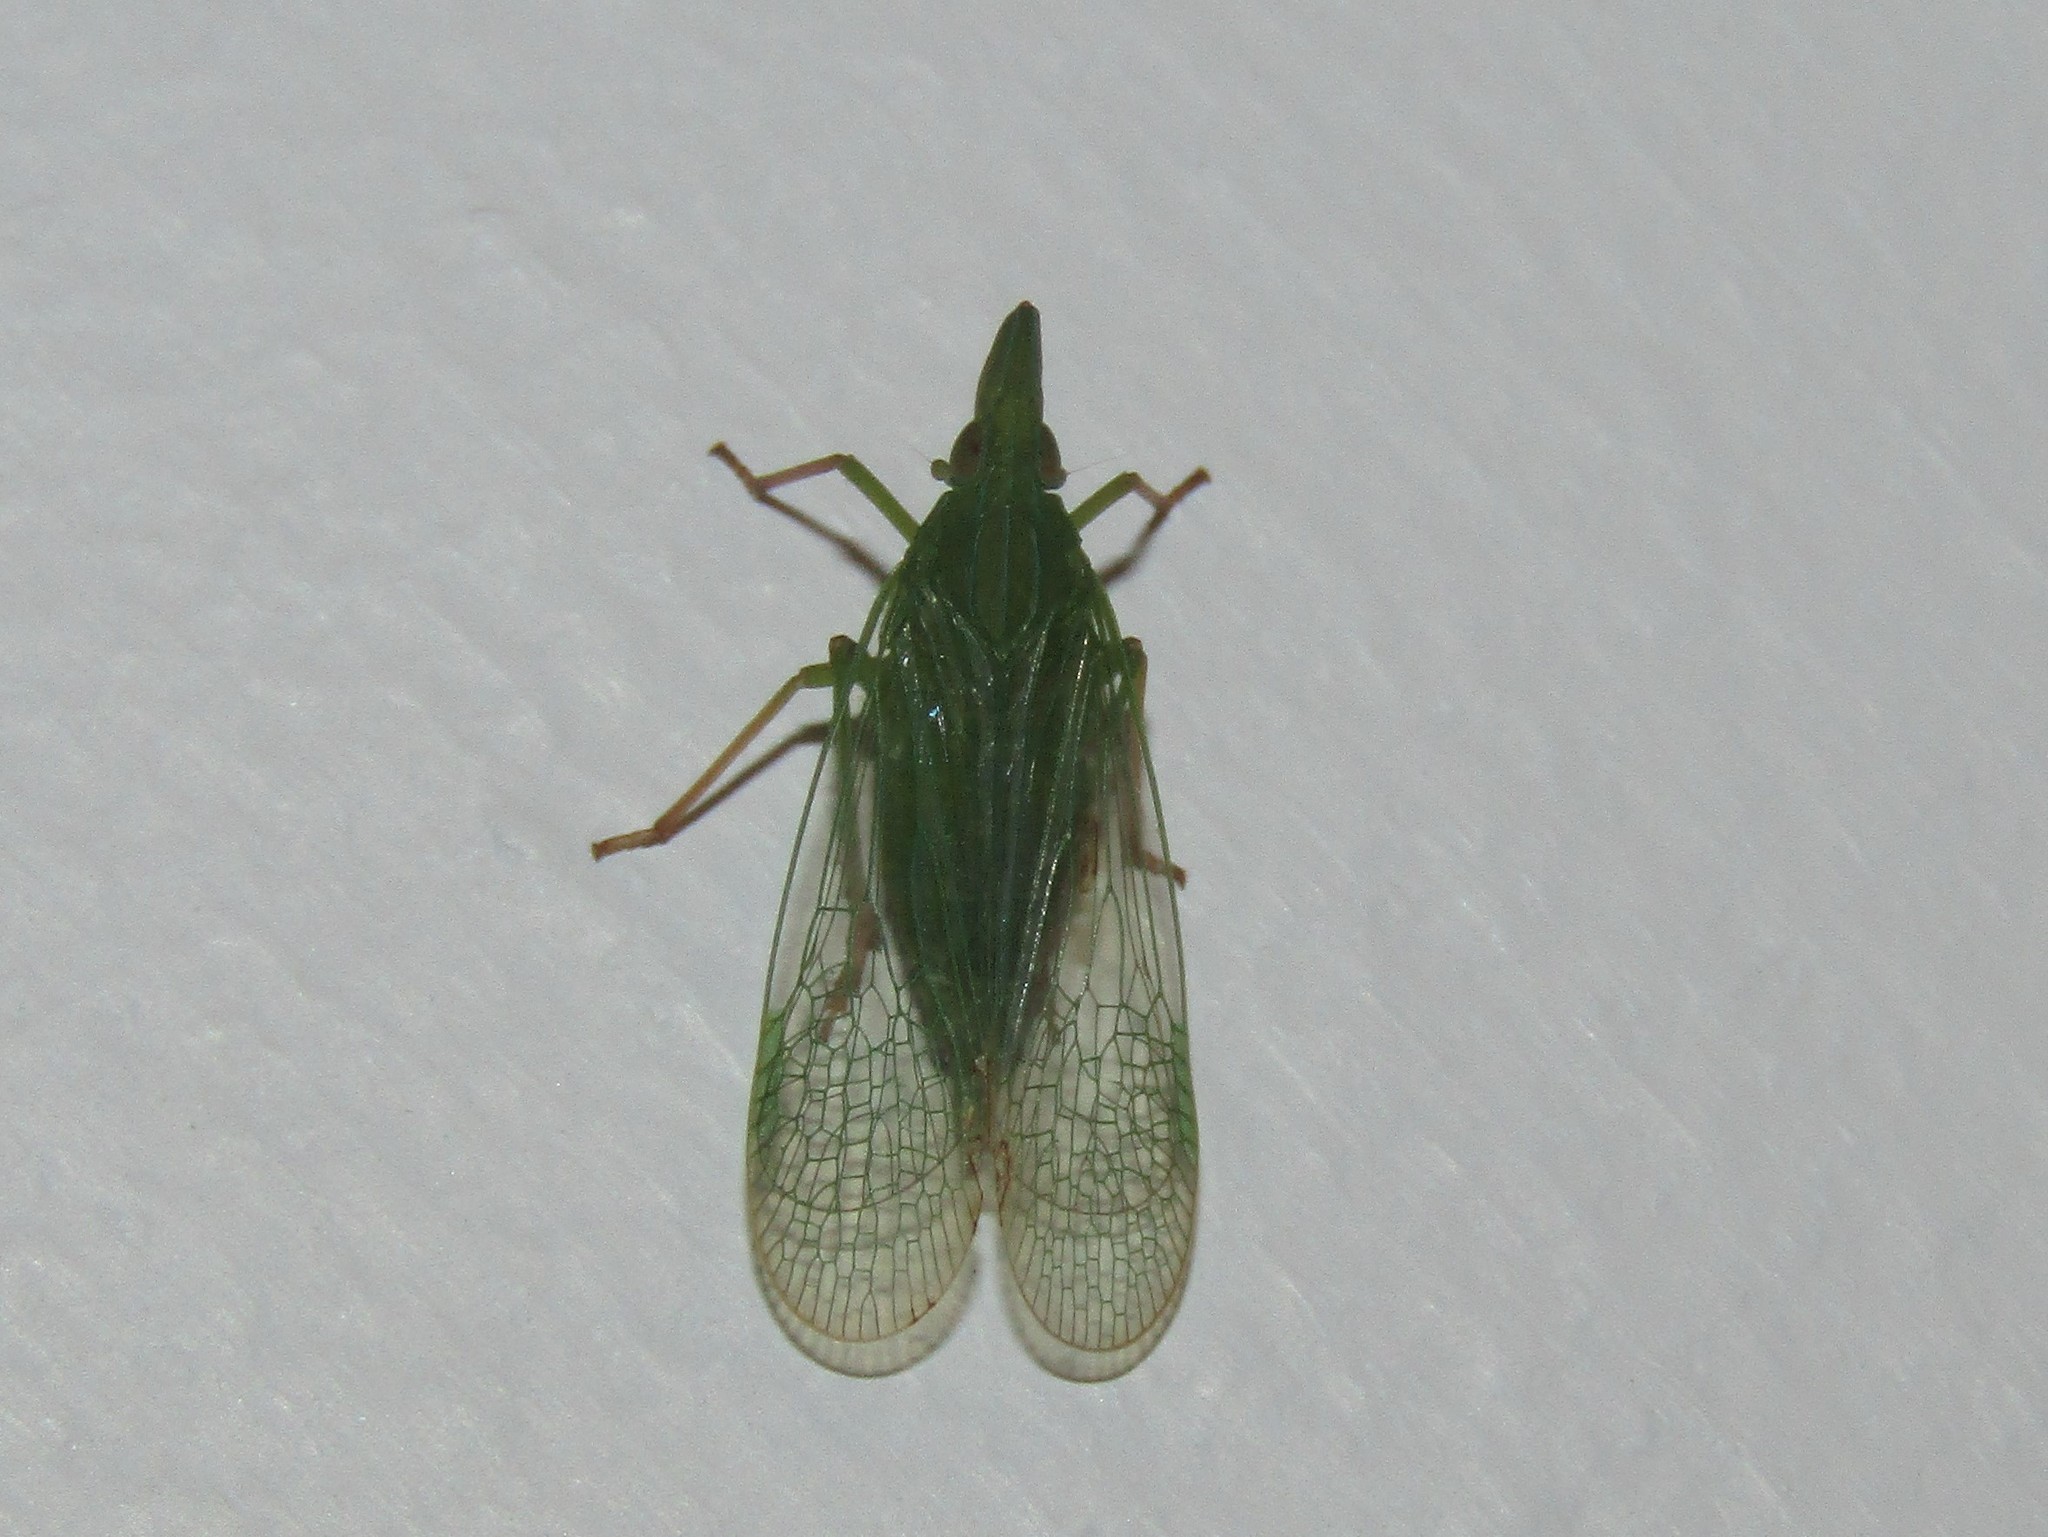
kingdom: Animalia
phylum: Arthropoda
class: Insecta
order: Hemiptera
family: Dictyopharidae
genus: Rhynchomitra
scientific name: Rhynchomitra microrhina
